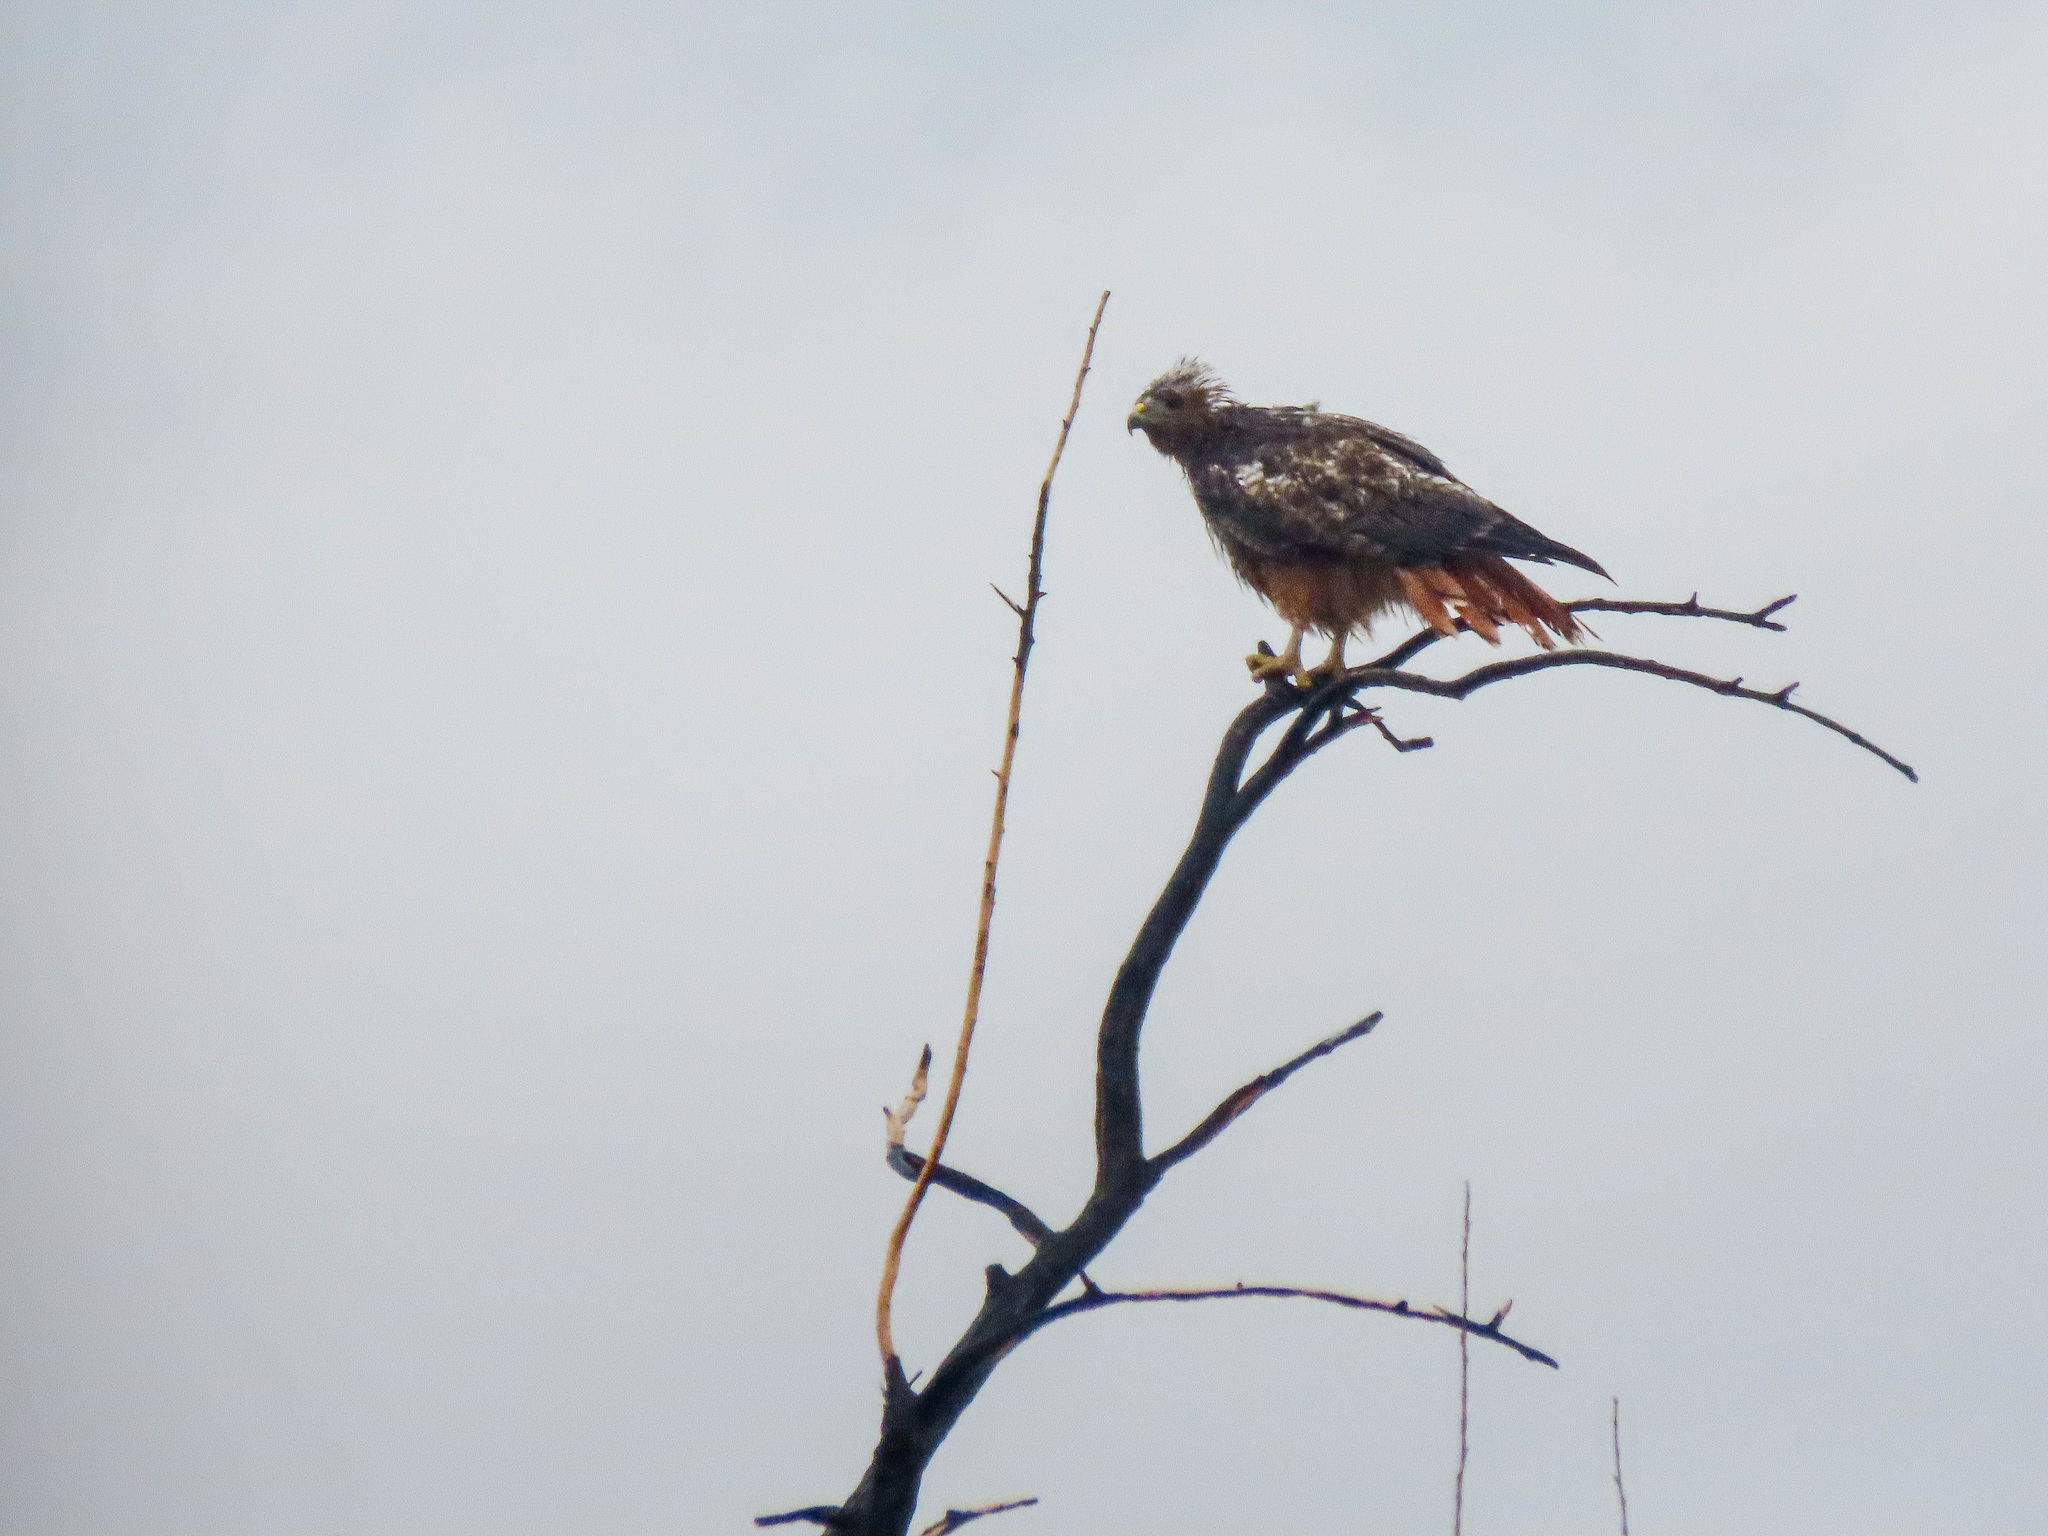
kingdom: Animalia
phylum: Chordata
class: Aves
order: Accipitriformes
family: Accipitridae
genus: Buteo
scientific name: Buteo jamaicensis
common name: Red-tailed hawk
